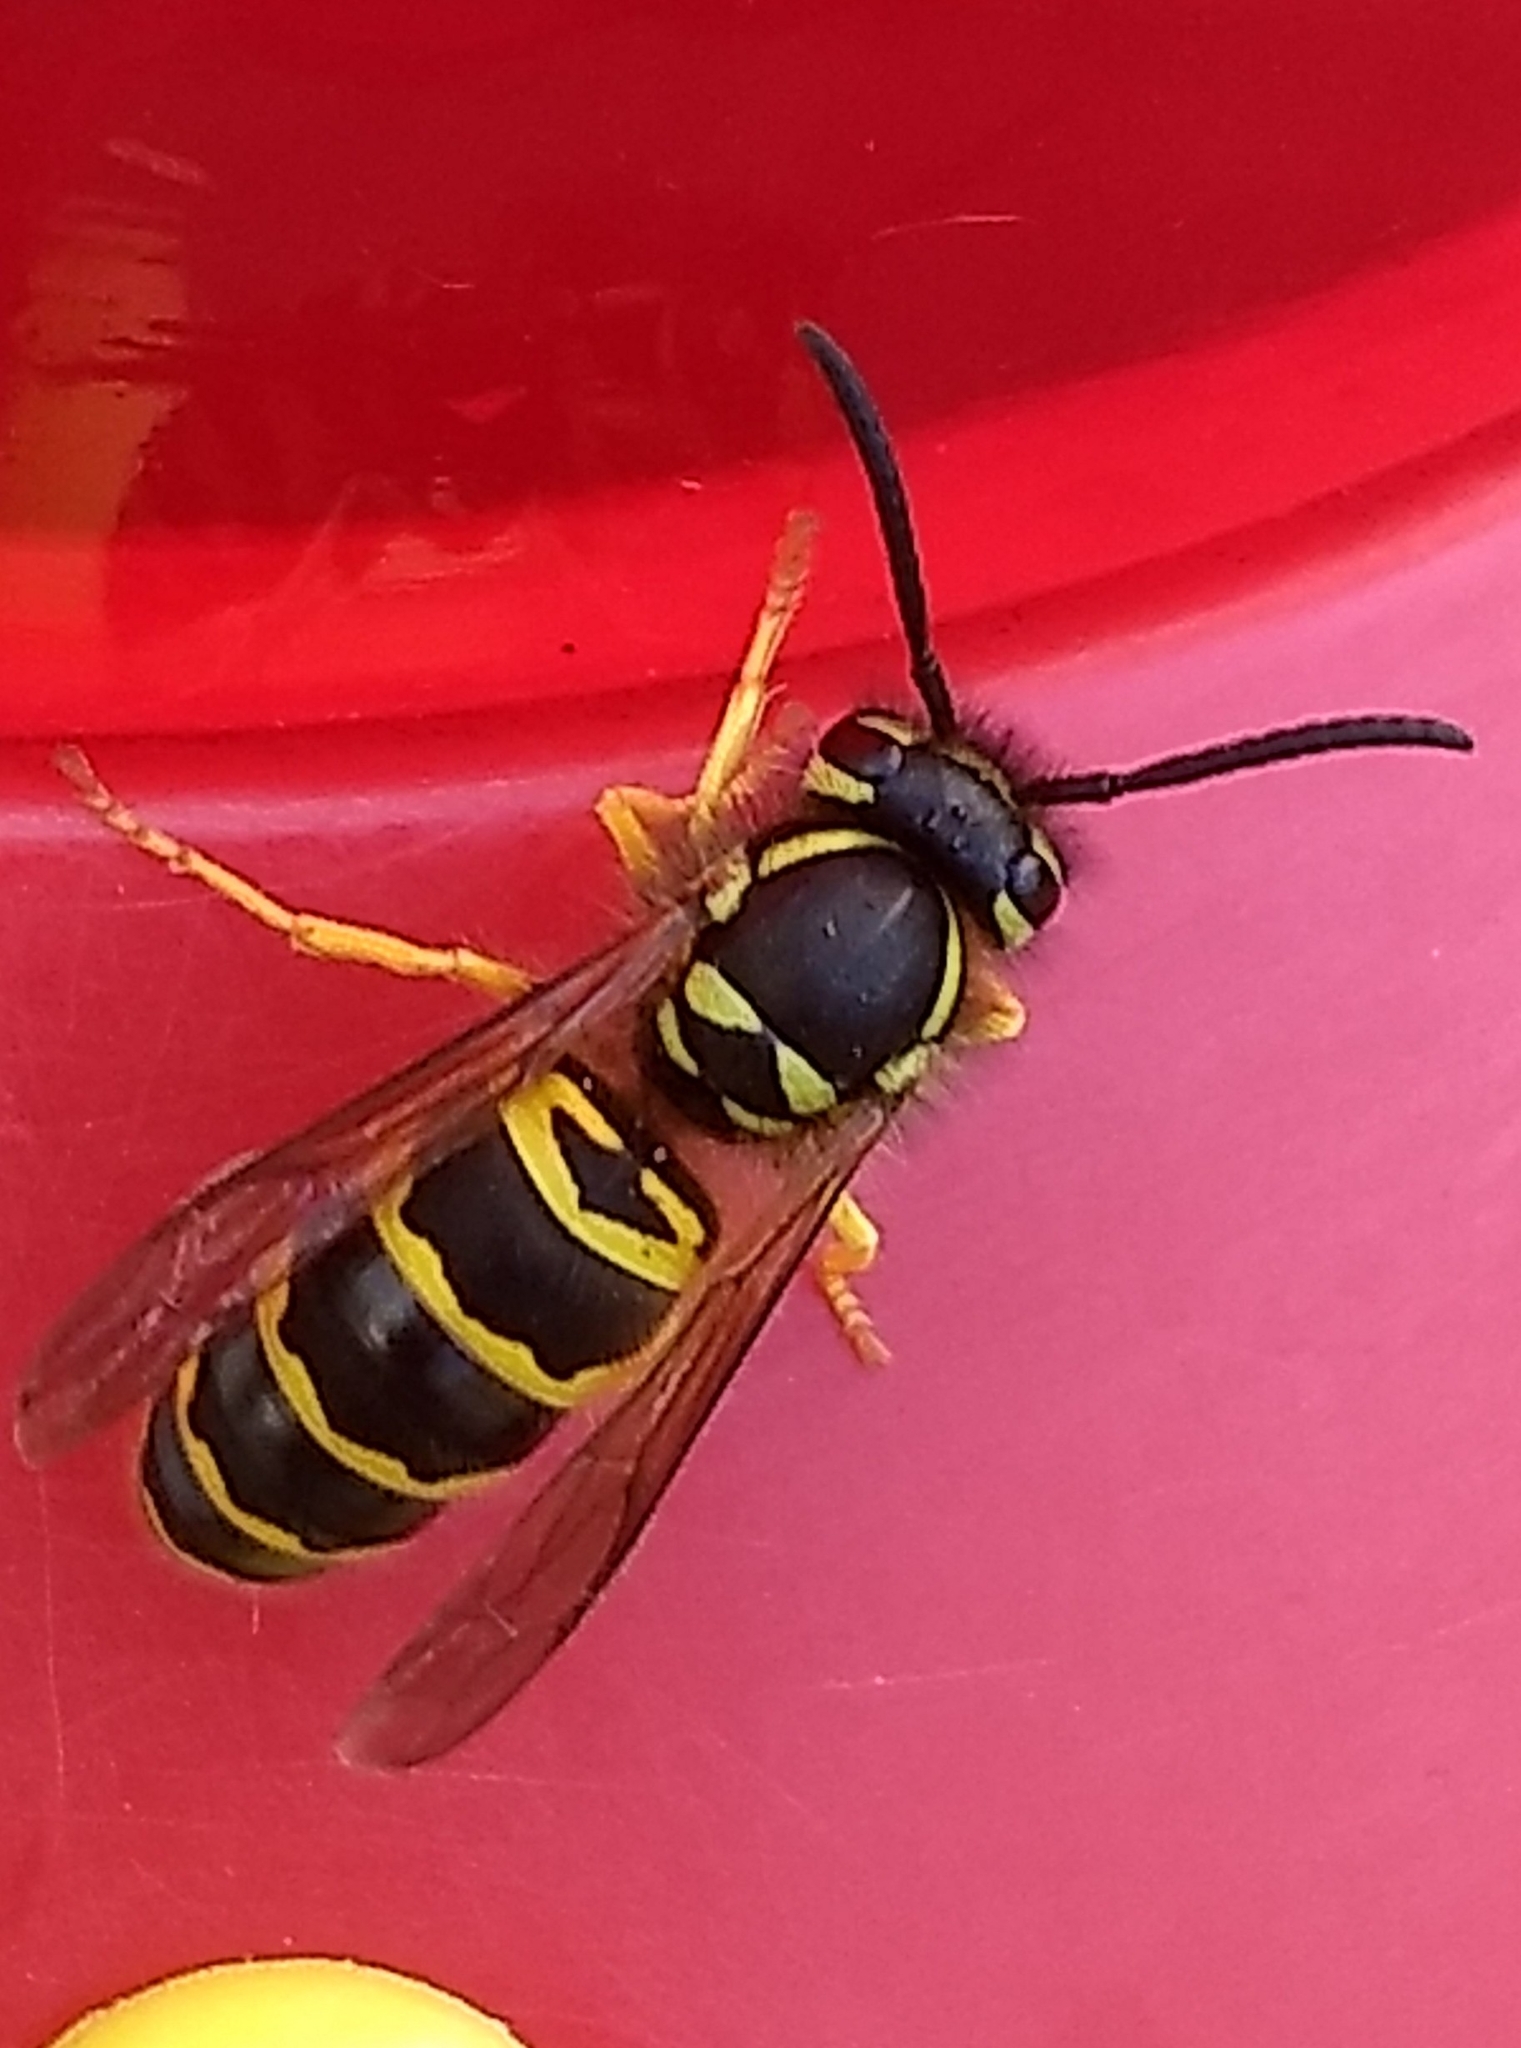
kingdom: Animalia
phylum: Arthropoda
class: Insecta
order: Hymenoptera
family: Vespidae
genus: Vespula
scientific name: Vespula maculifrons
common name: Eastern yellowjacket
